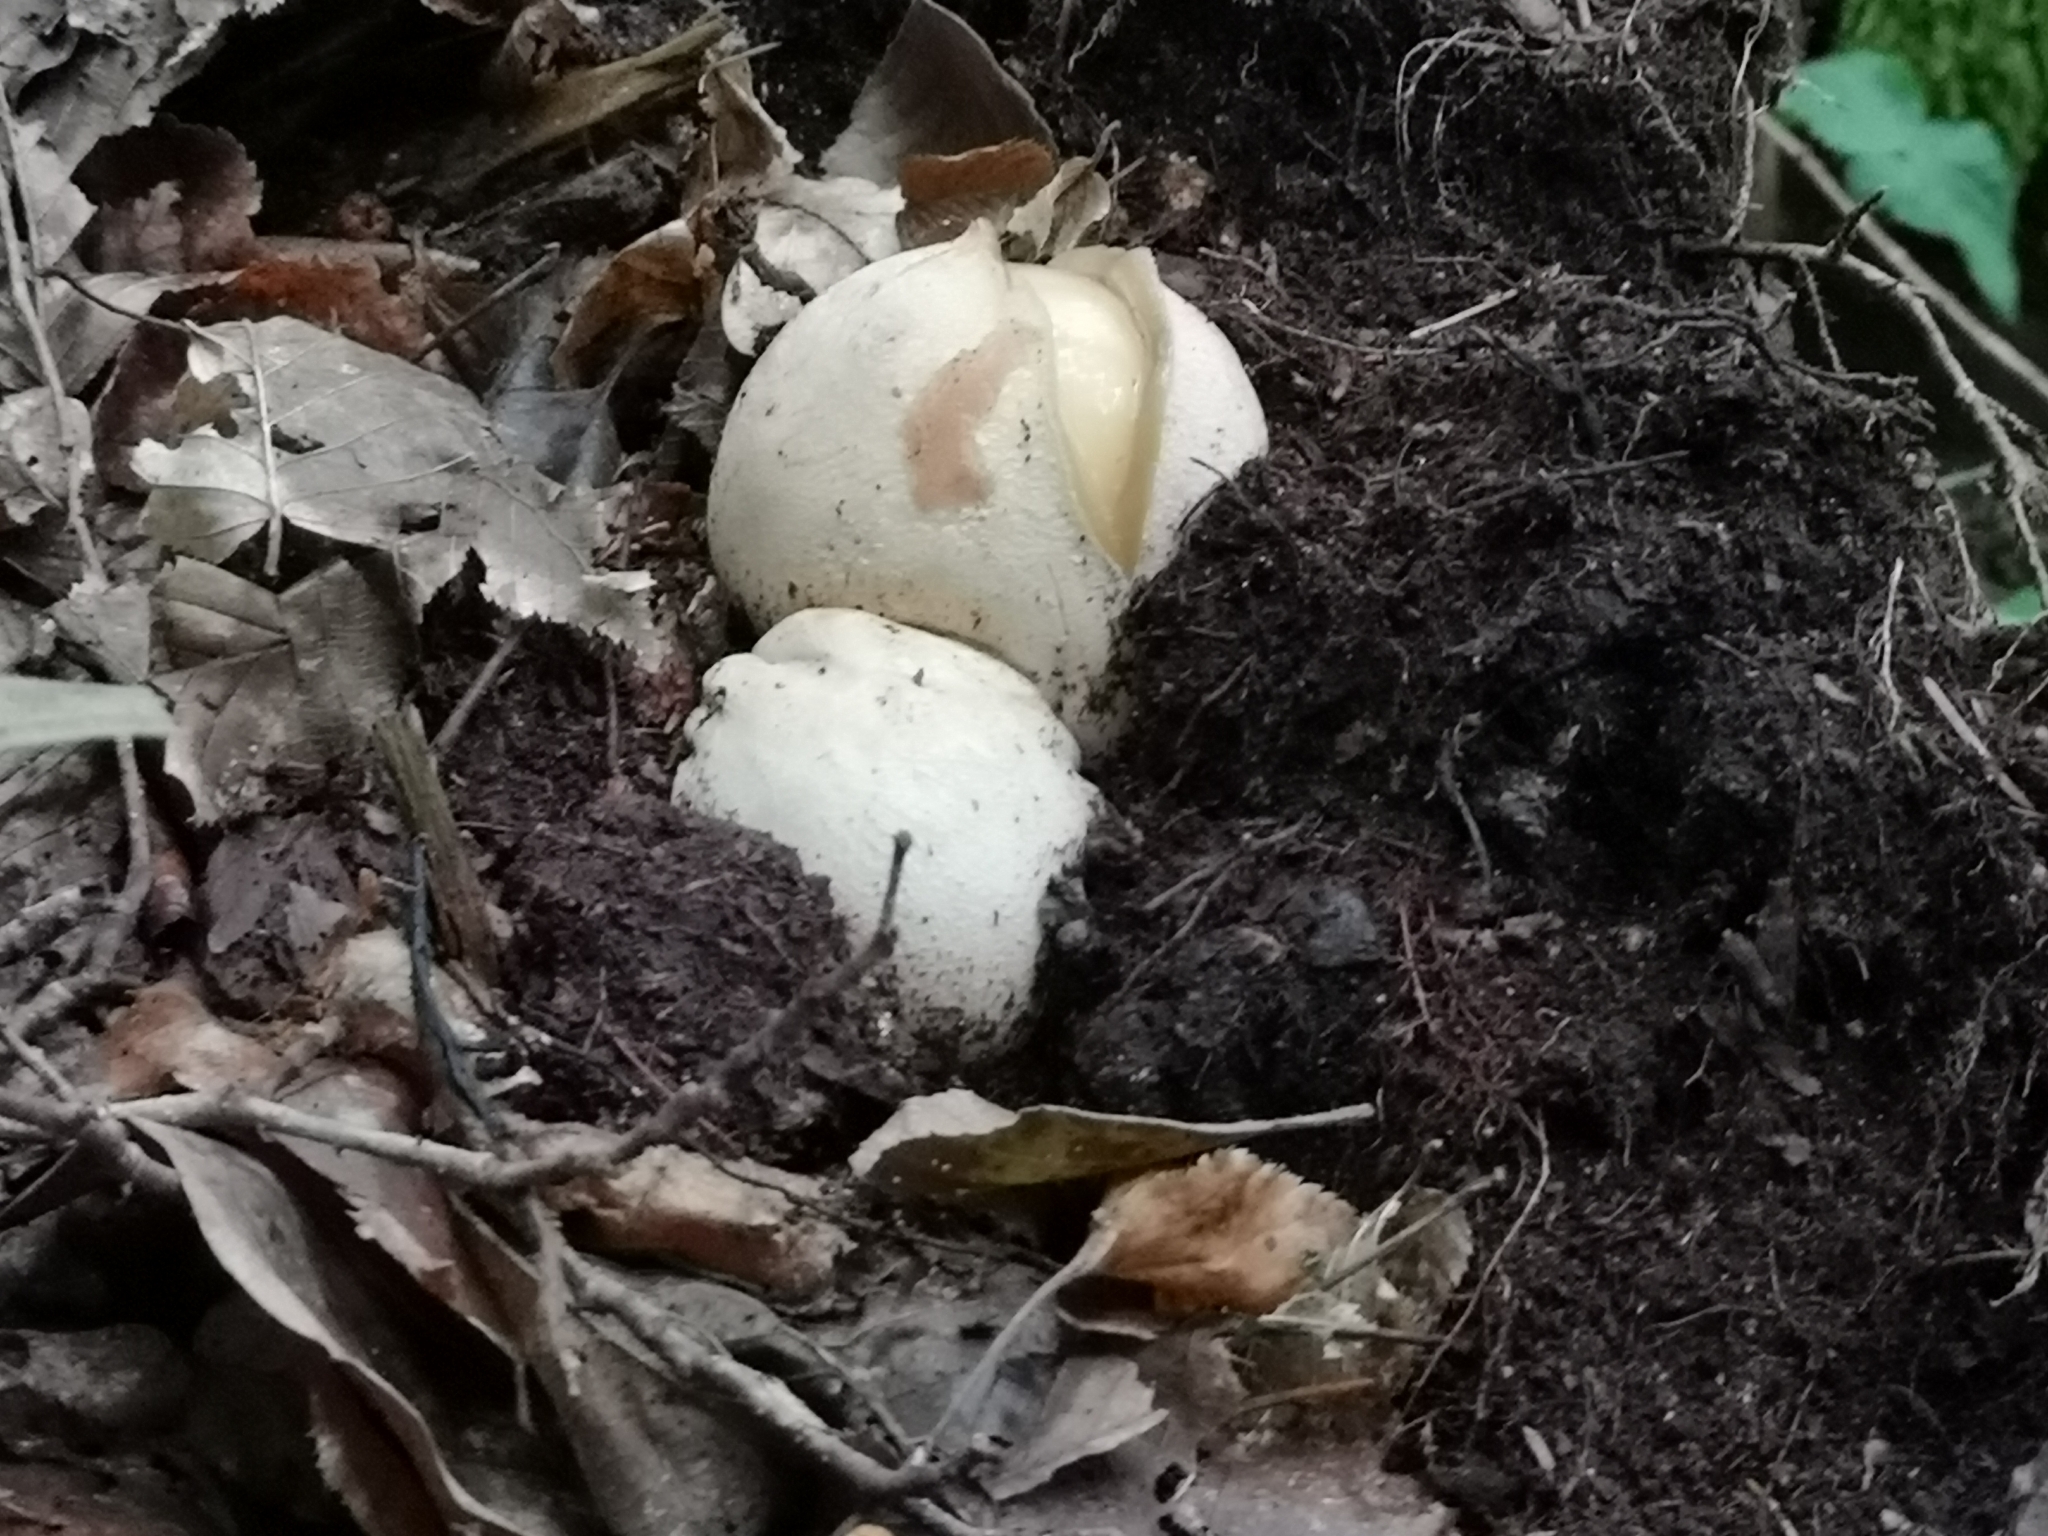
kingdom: Fungi
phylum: Basidiomycota
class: Agaricomycetes
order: Phallales
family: Phallaceae
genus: Phallus
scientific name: Phallus impudicus
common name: Common stinkhorn
